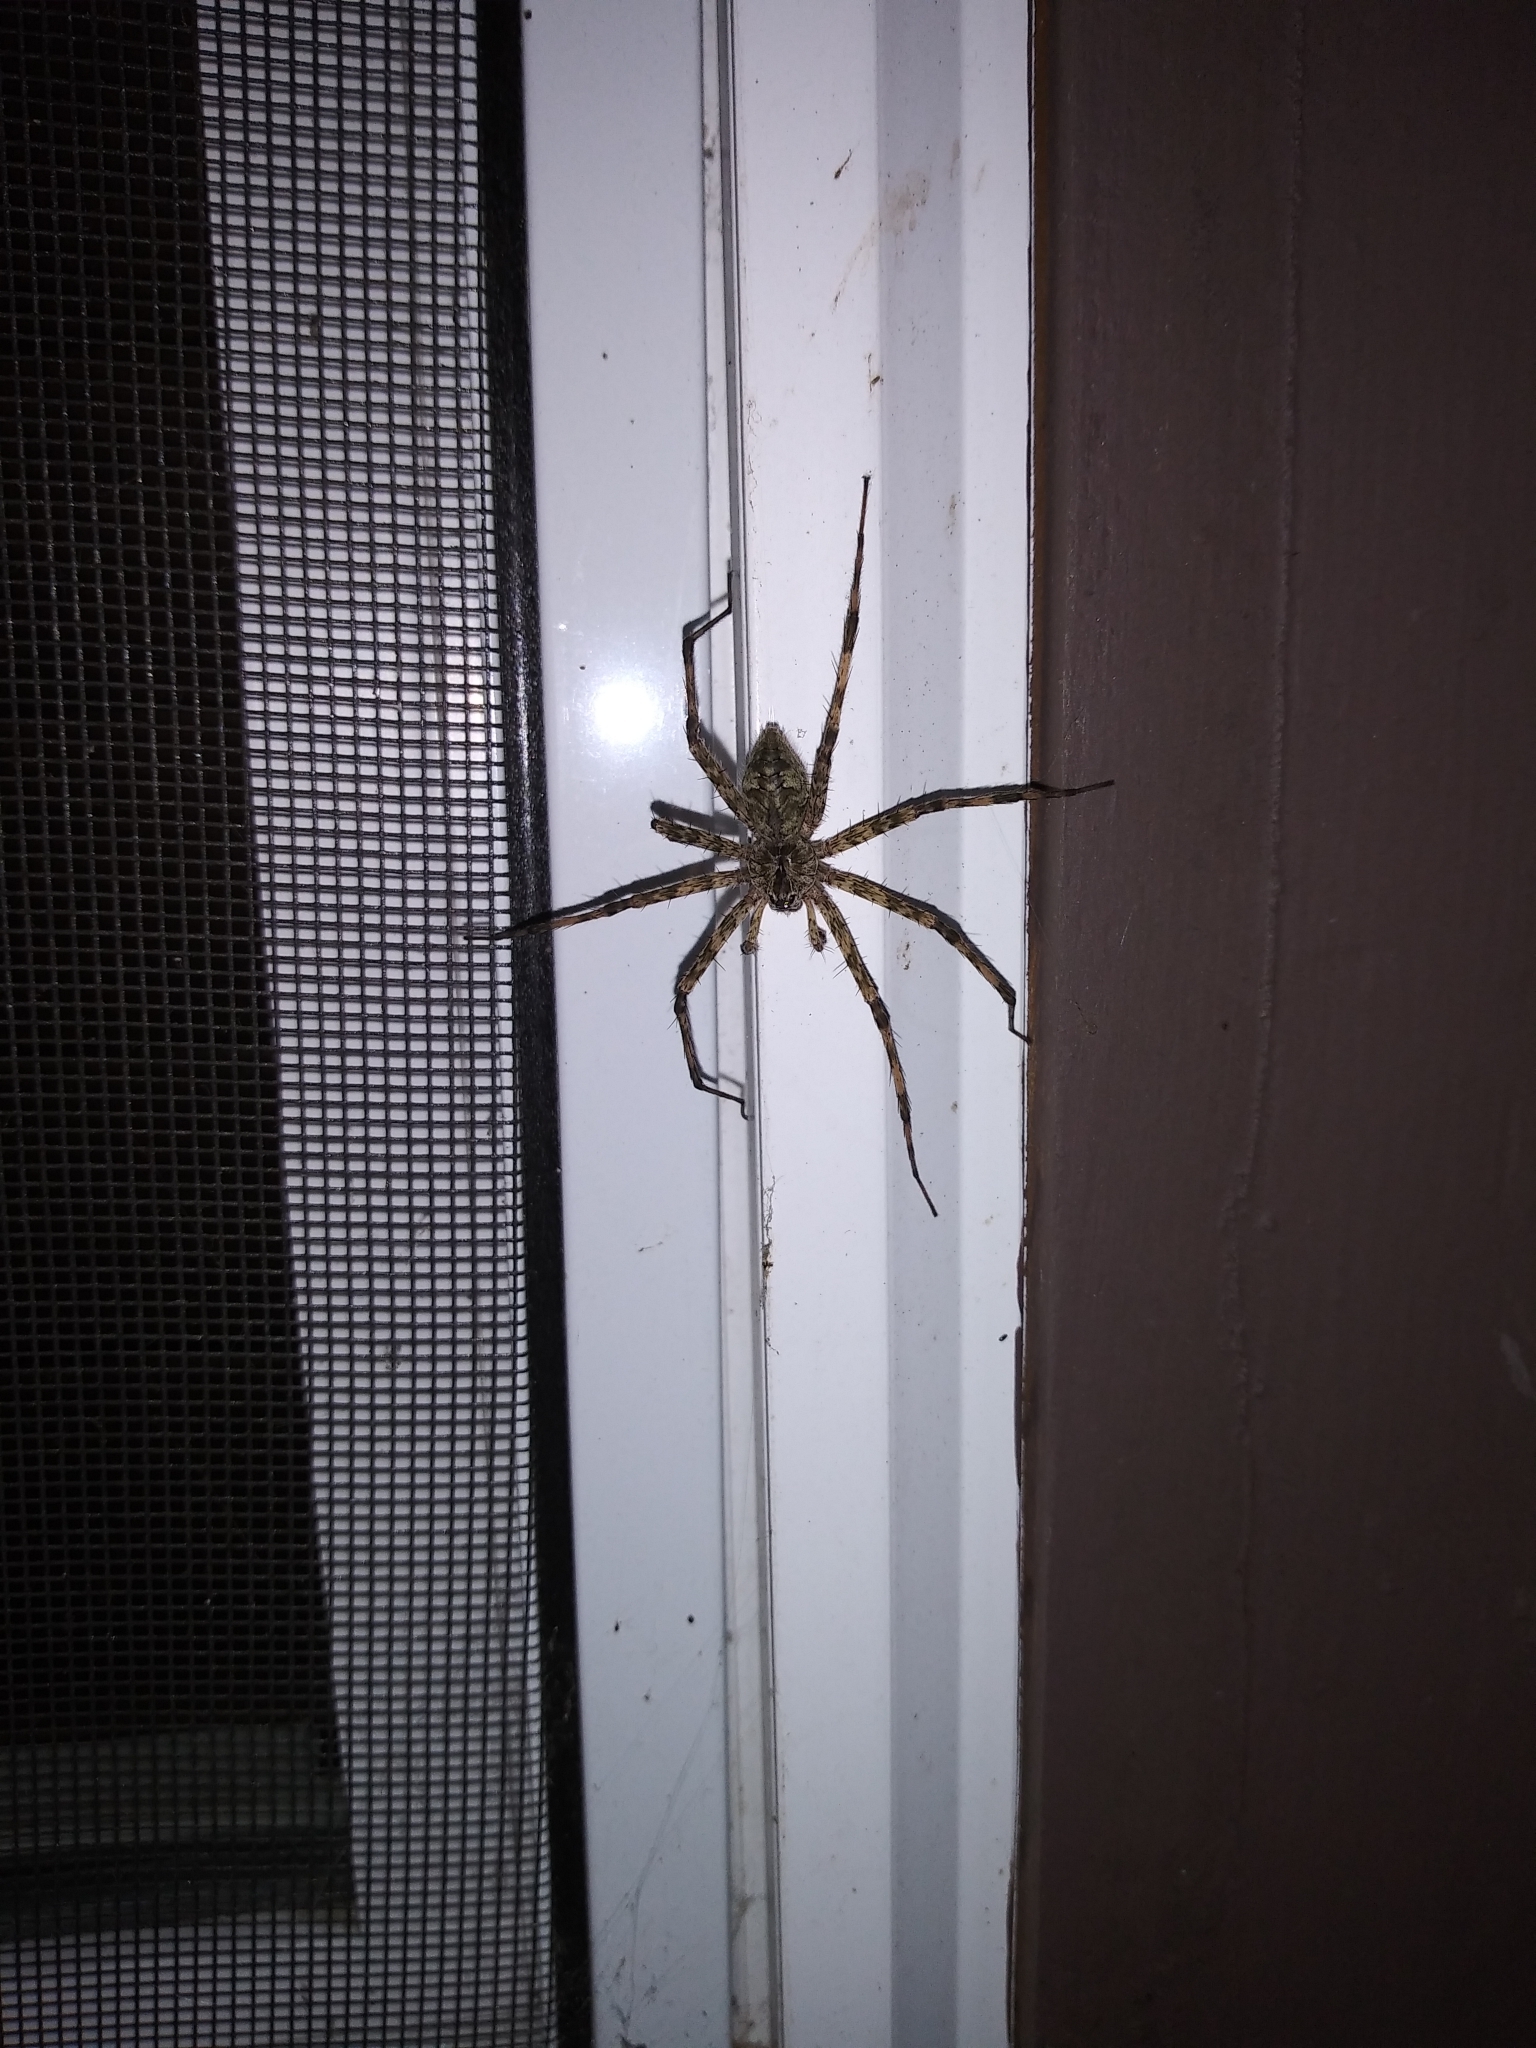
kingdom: Animalia
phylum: Arthropoda
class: Arachnida
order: Araneae
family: Pisauridae
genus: Dolomedes
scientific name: Dolomedes albineus
